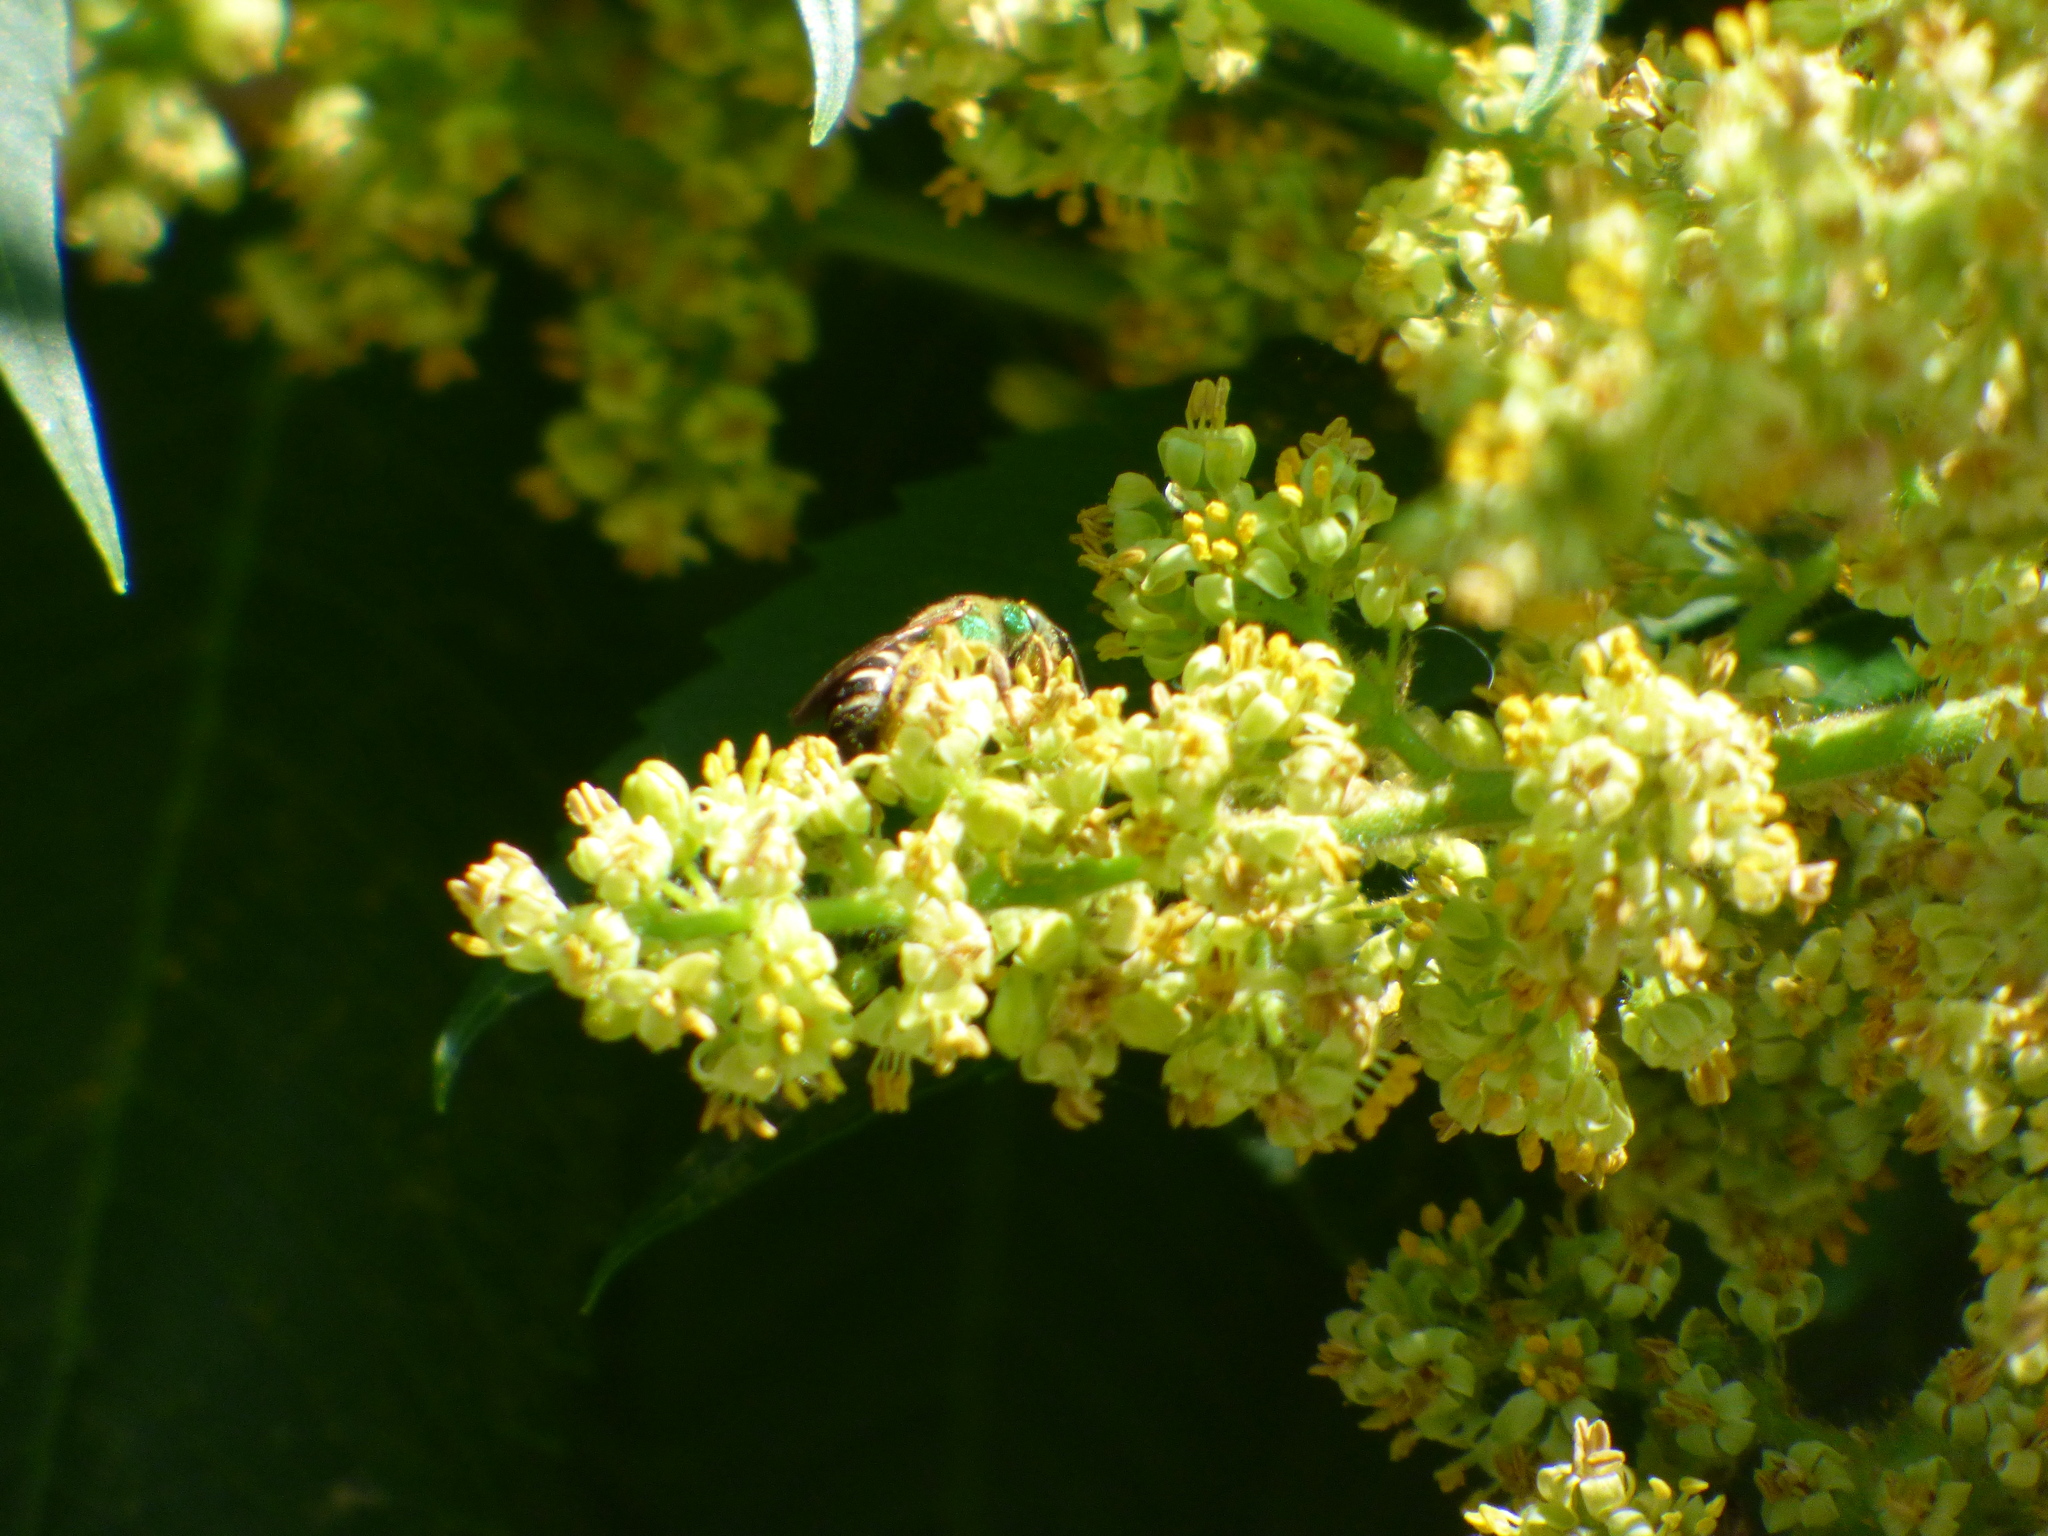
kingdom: Animalia
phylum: Arthropoda
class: Insecta
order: Hymenoptera
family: Halictidae
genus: Agapostemon
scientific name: Agapostemon virescens
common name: Bicolored striped sweat bee
